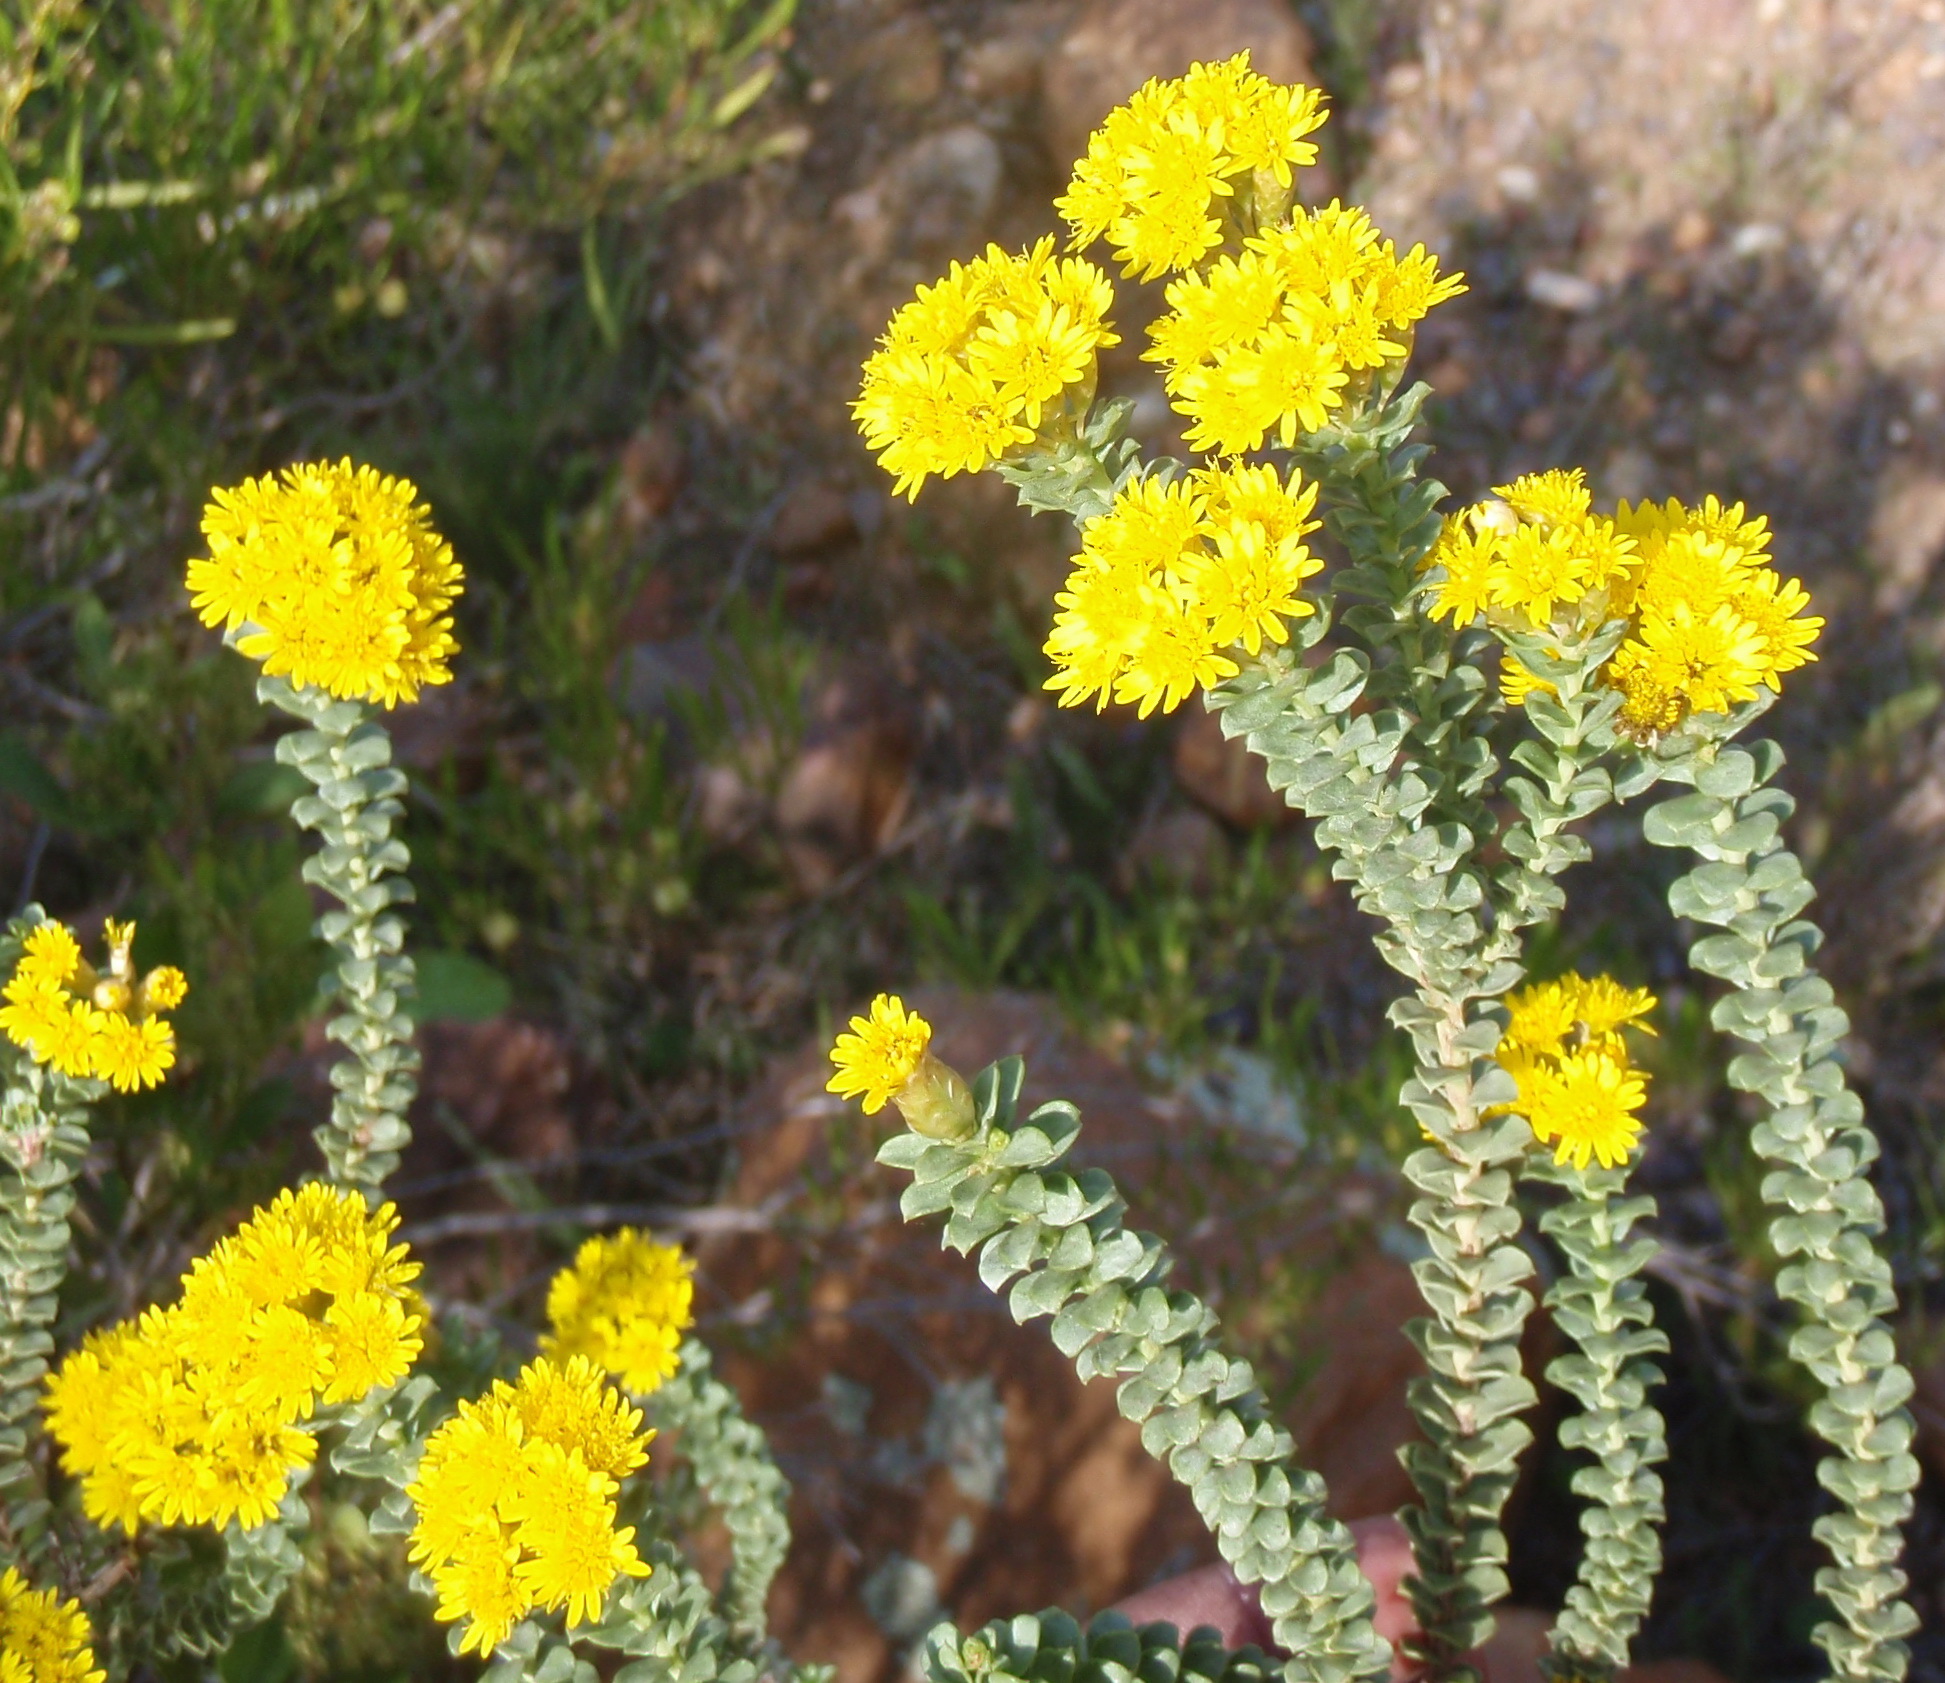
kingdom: Plantae
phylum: Tracheophyta
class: Magnoliopsida
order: Asterales
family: Asteraceae
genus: Oedera
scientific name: Oedera squarrosa
